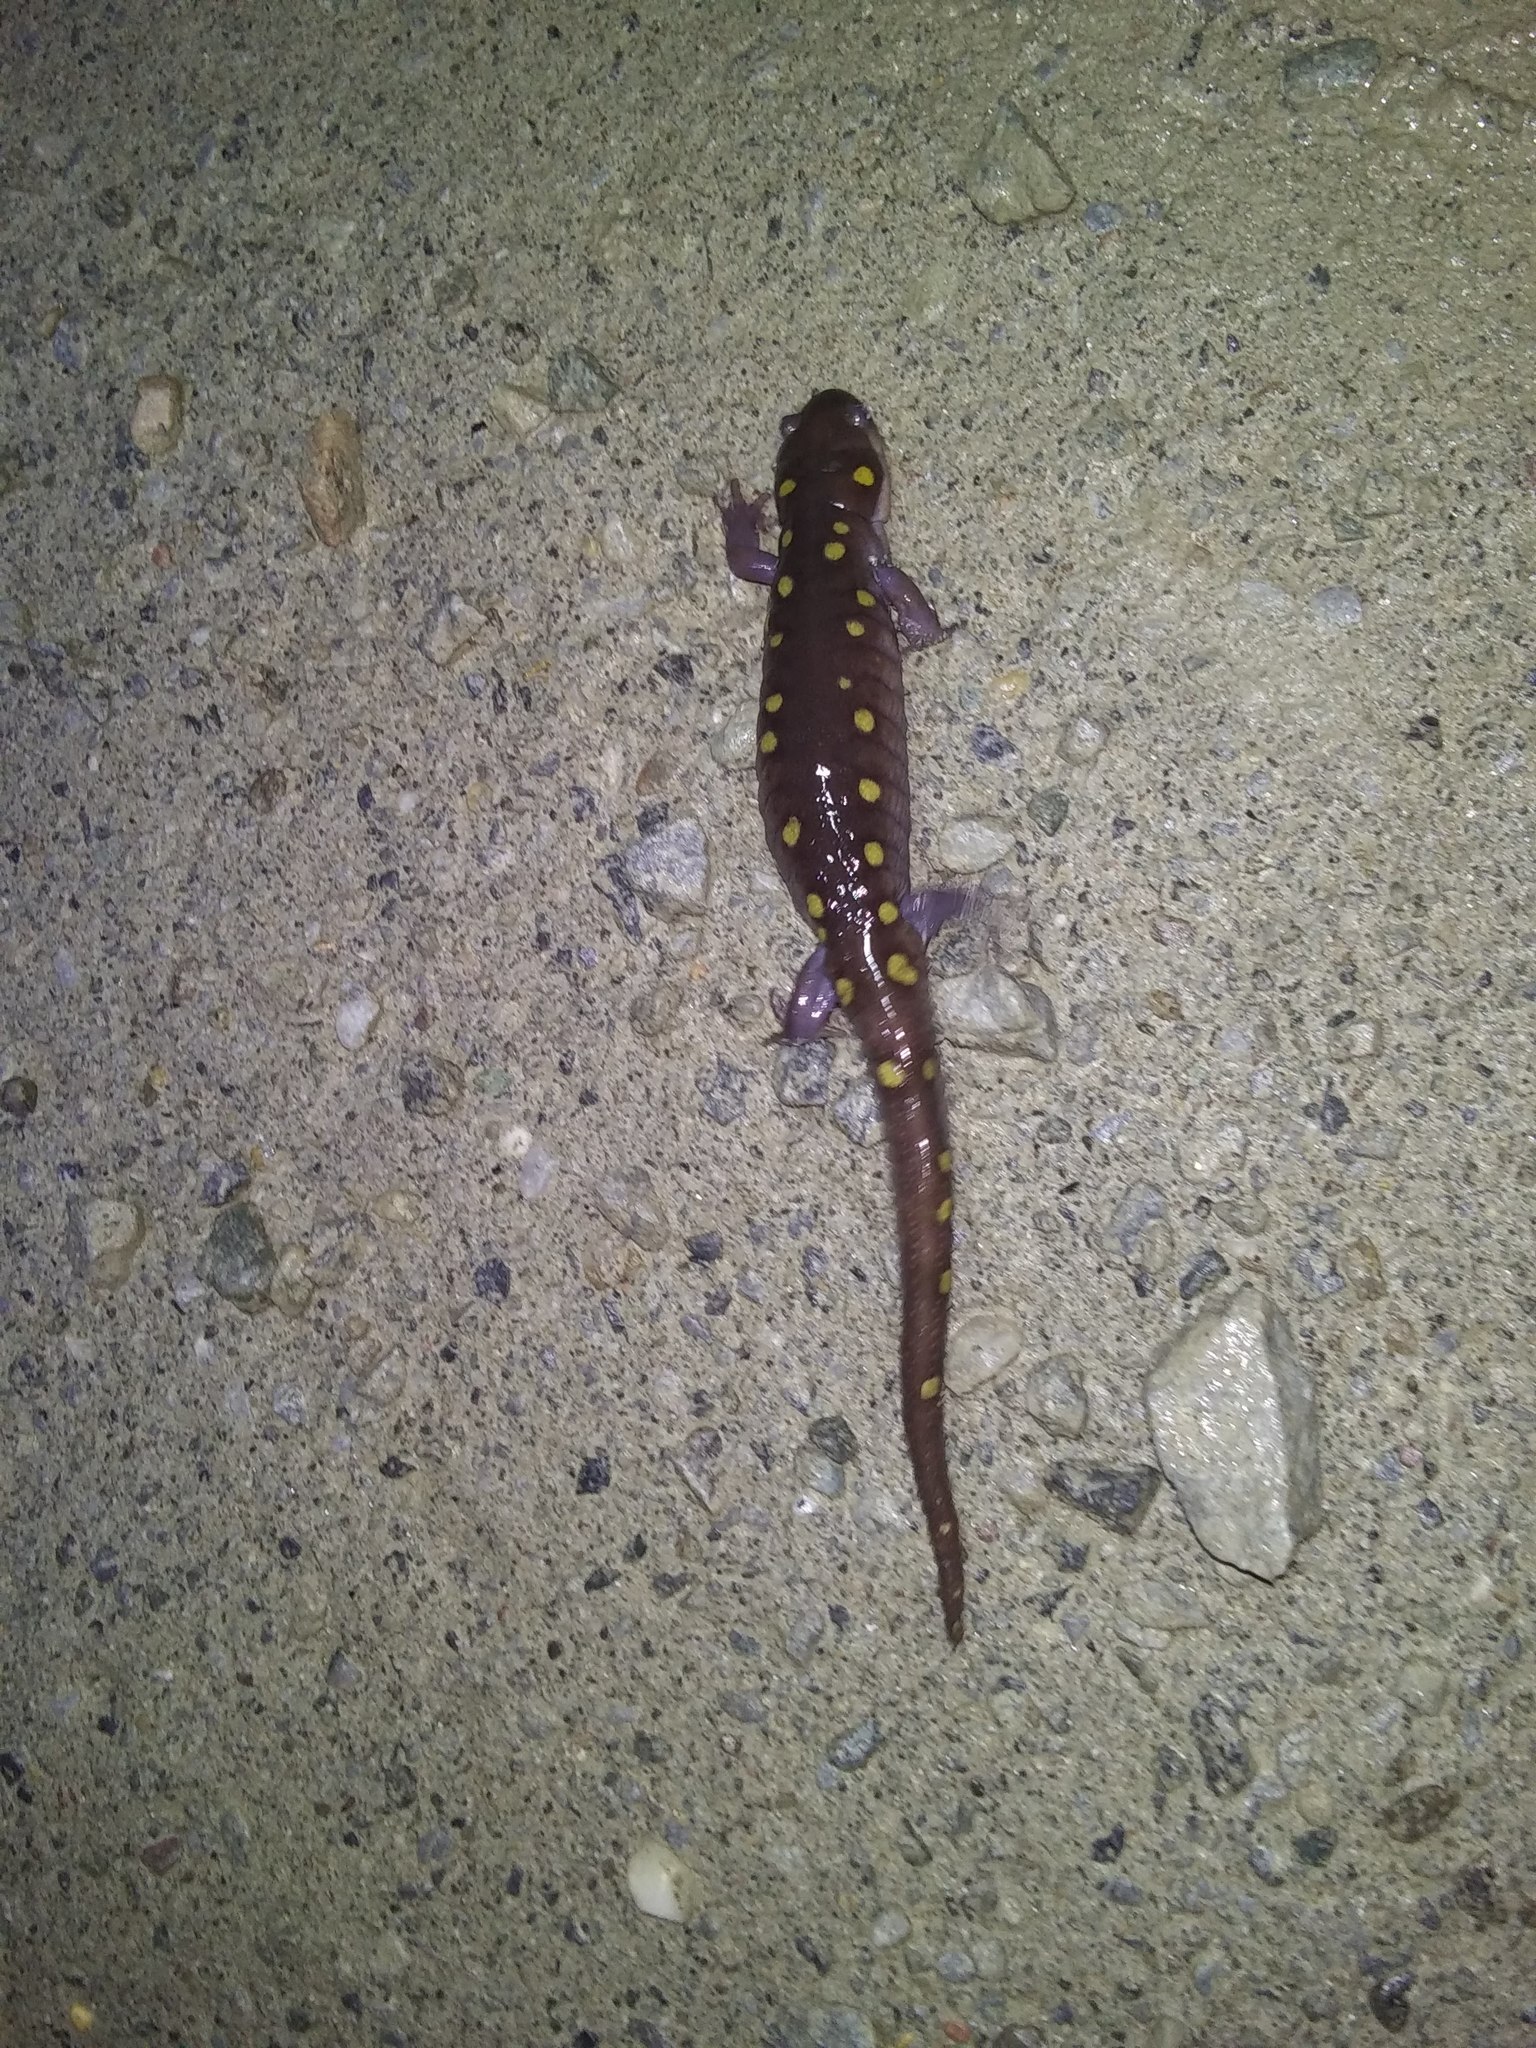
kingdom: Animalia
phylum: Chordata
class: Amphibia
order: Caudata
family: Ambystomatidae
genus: Ambystoma
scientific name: Ambystoma maculatum
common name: Spotted salamander
